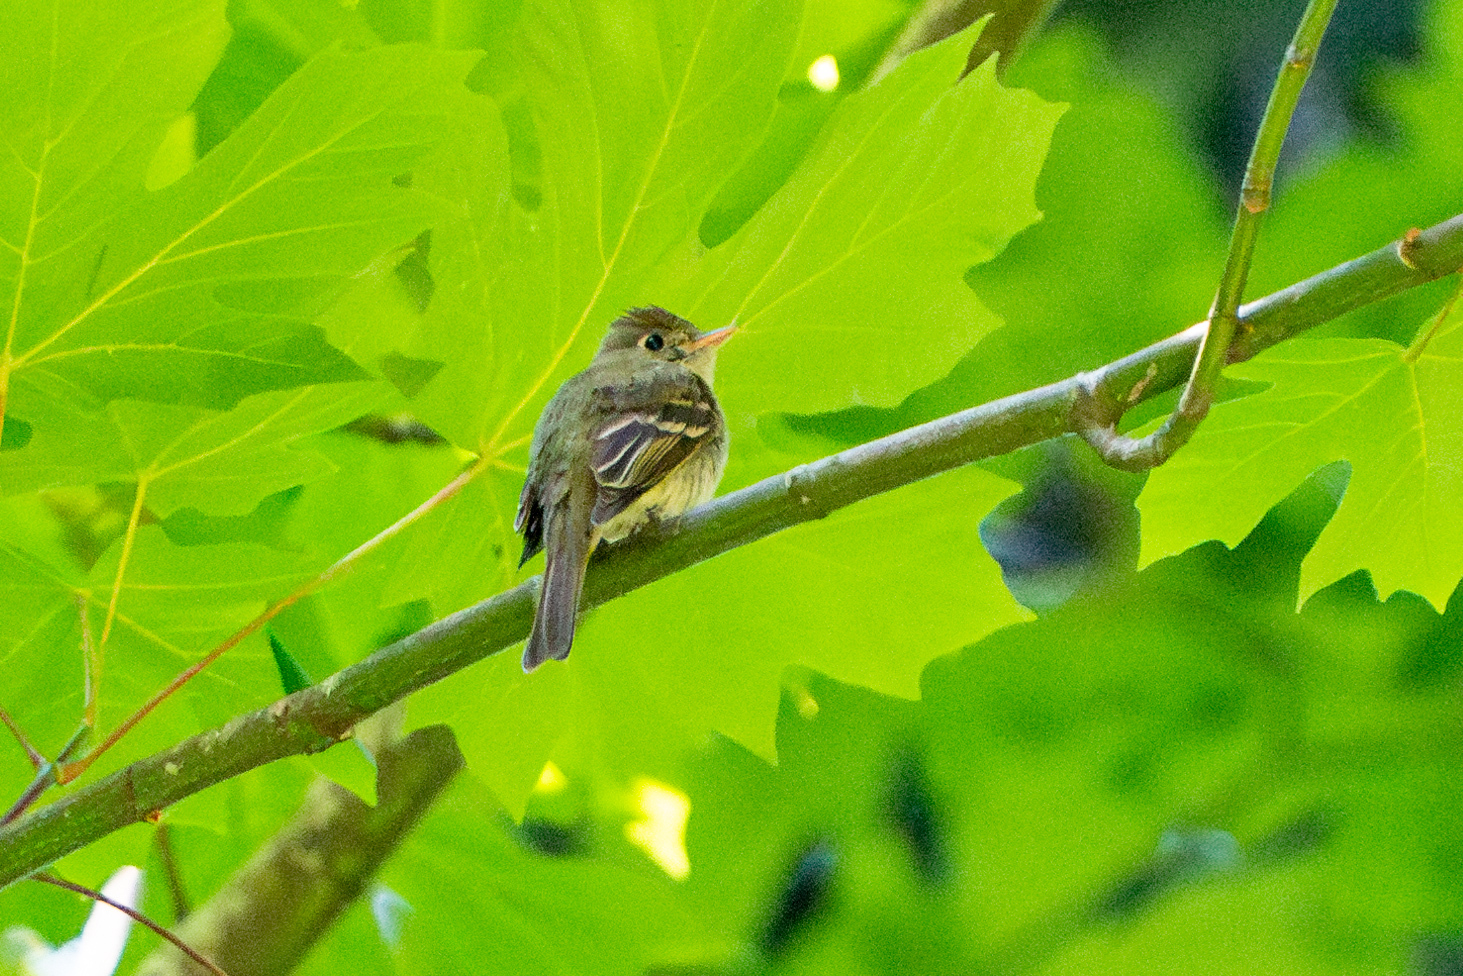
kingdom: Animalia
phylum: Chordata
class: Aves
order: Passeriformes
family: Tyrannidae
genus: Empidonax
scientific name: Empidonax difficilis
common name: Pacific-slope flycatcher
